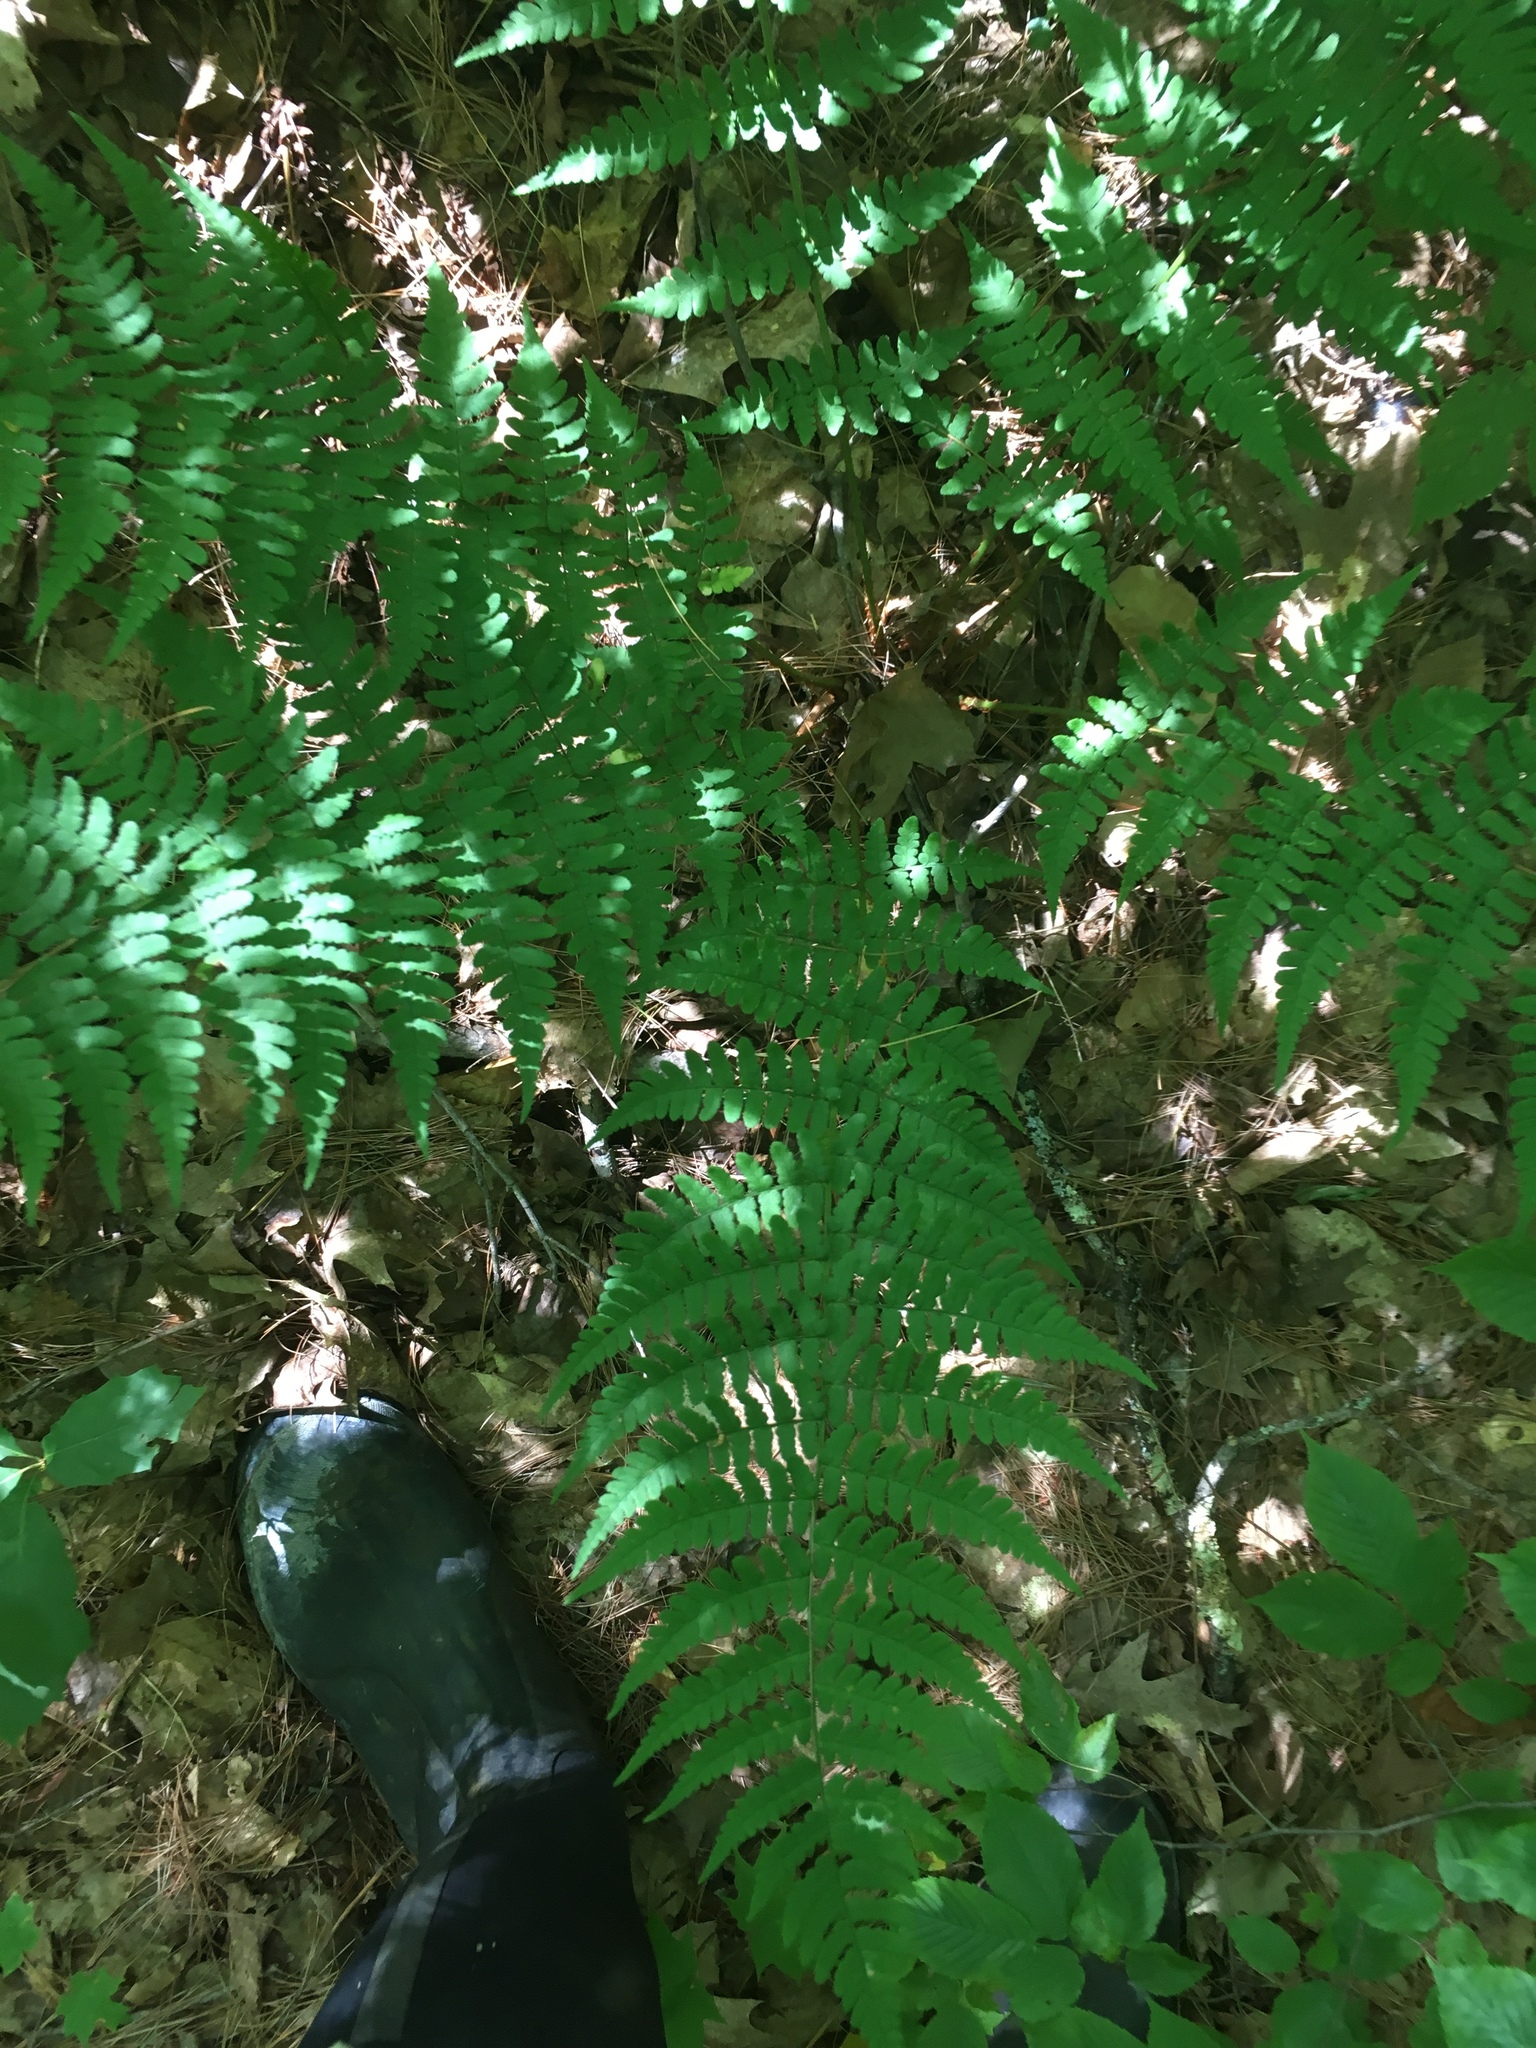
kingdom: Plantae
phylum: Tracheophyta
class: Polypodiopsida
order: Polypodiales
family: Dryopteridaceae
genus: Dryopteris
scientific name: Dryopteris marginalis
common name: Marginal wood fern
